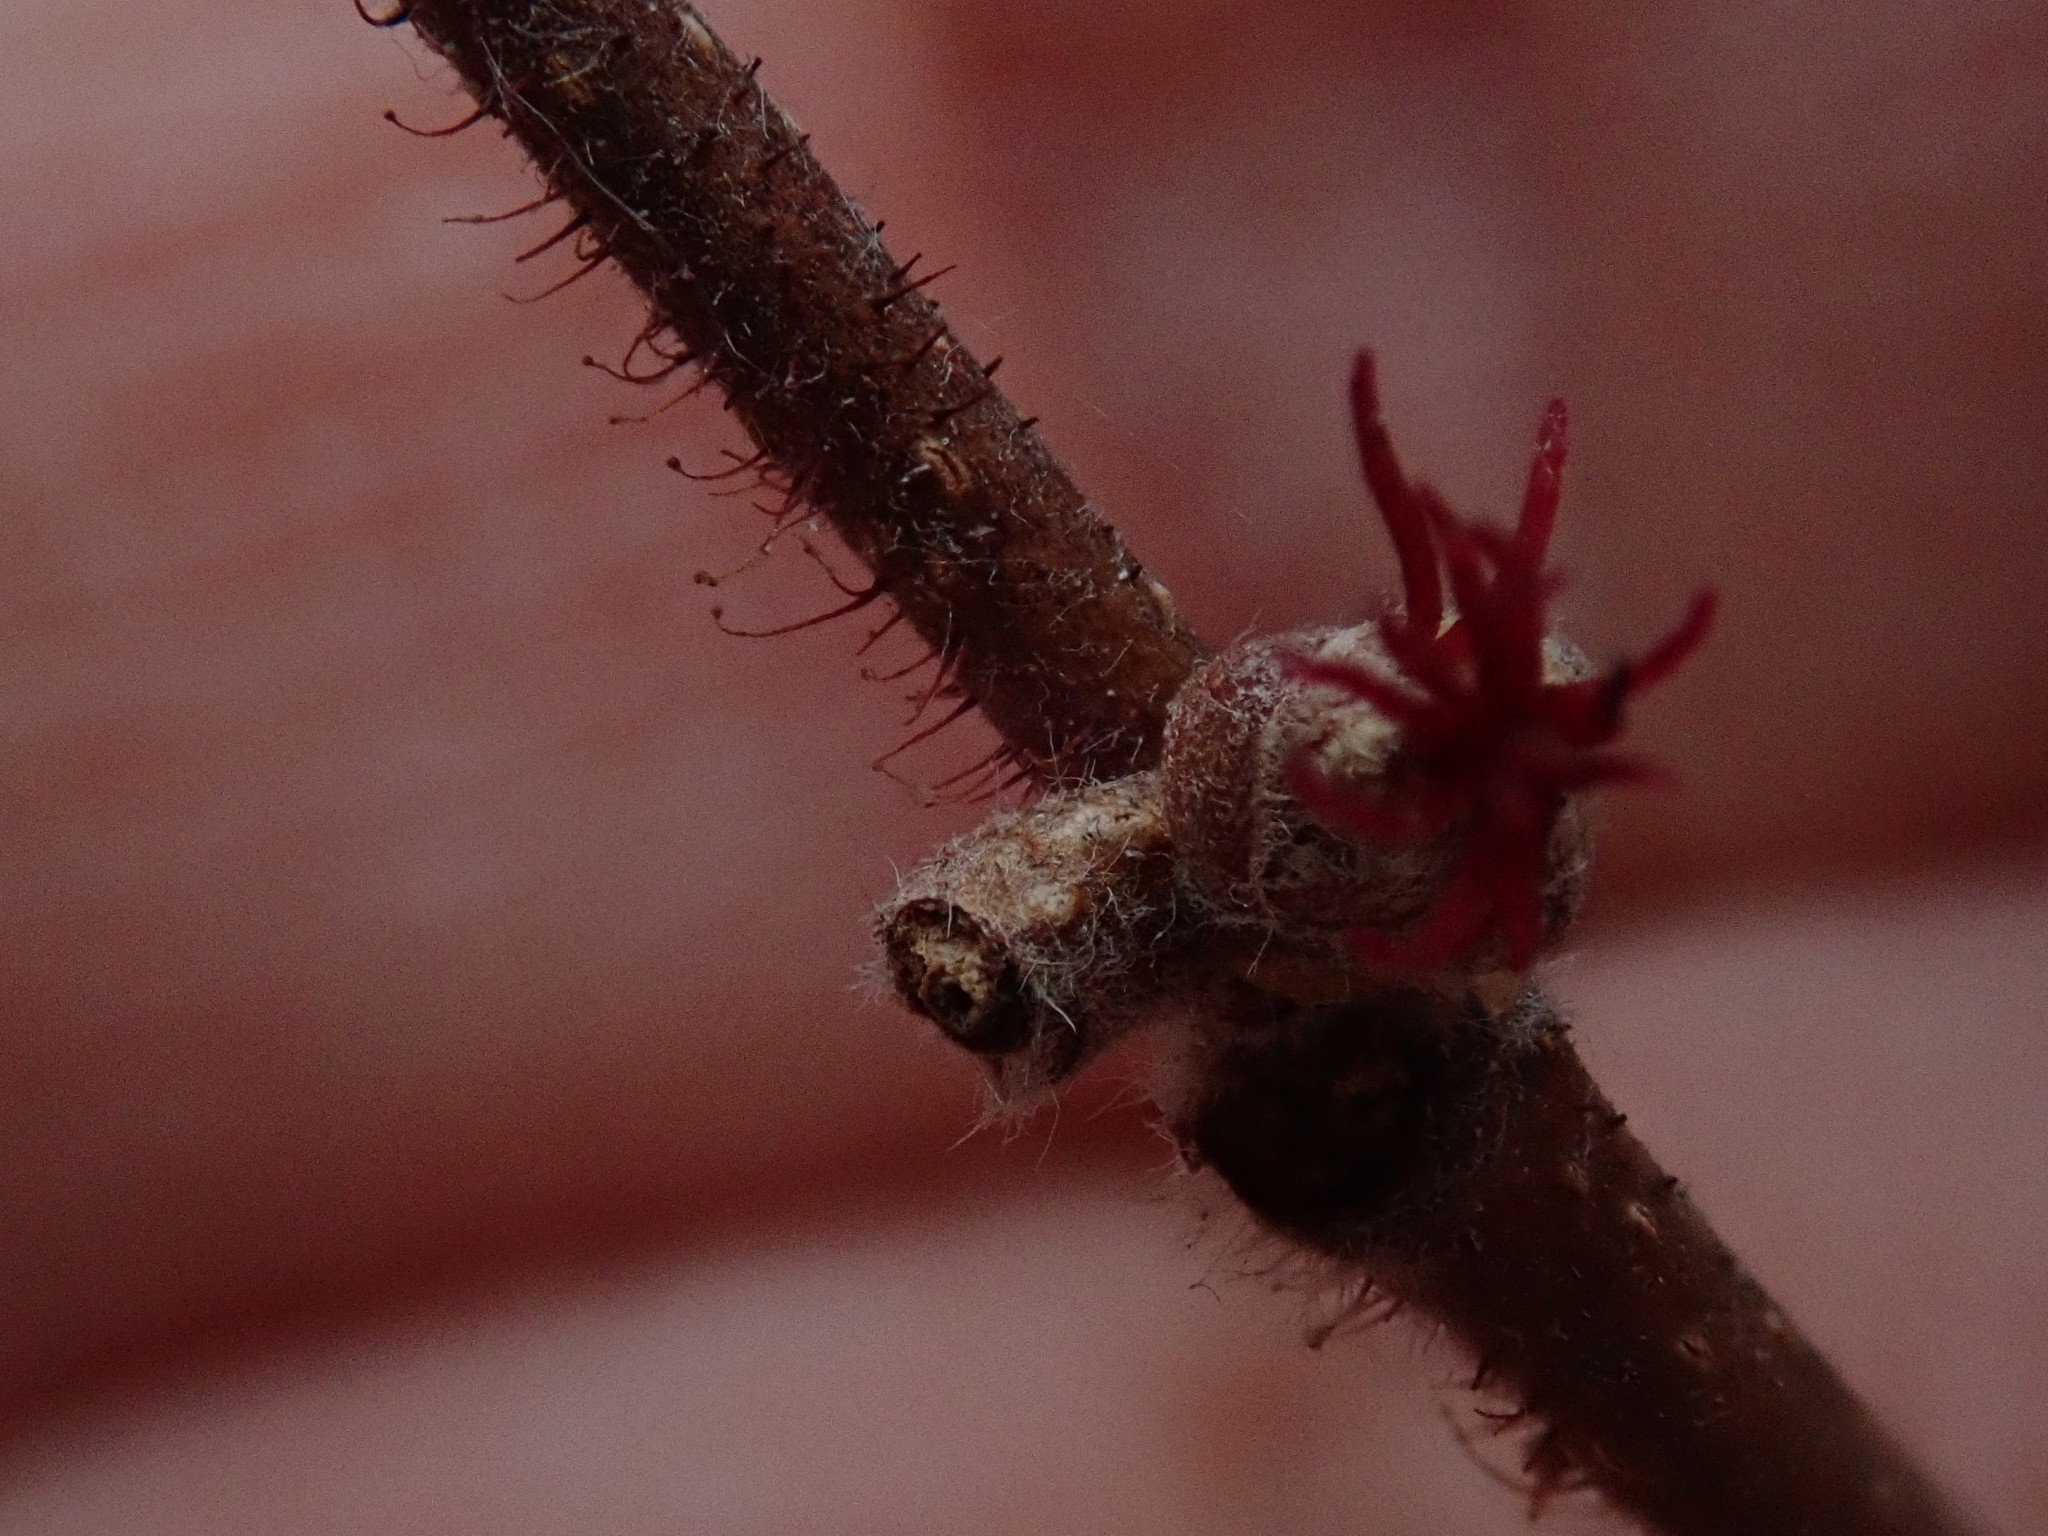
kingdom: Plantae
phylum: Tracheophyta
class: Magnoliopsida
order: Fagales
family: Betulaceae
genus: Corylus
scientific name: Corylus americana
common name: American hazel
